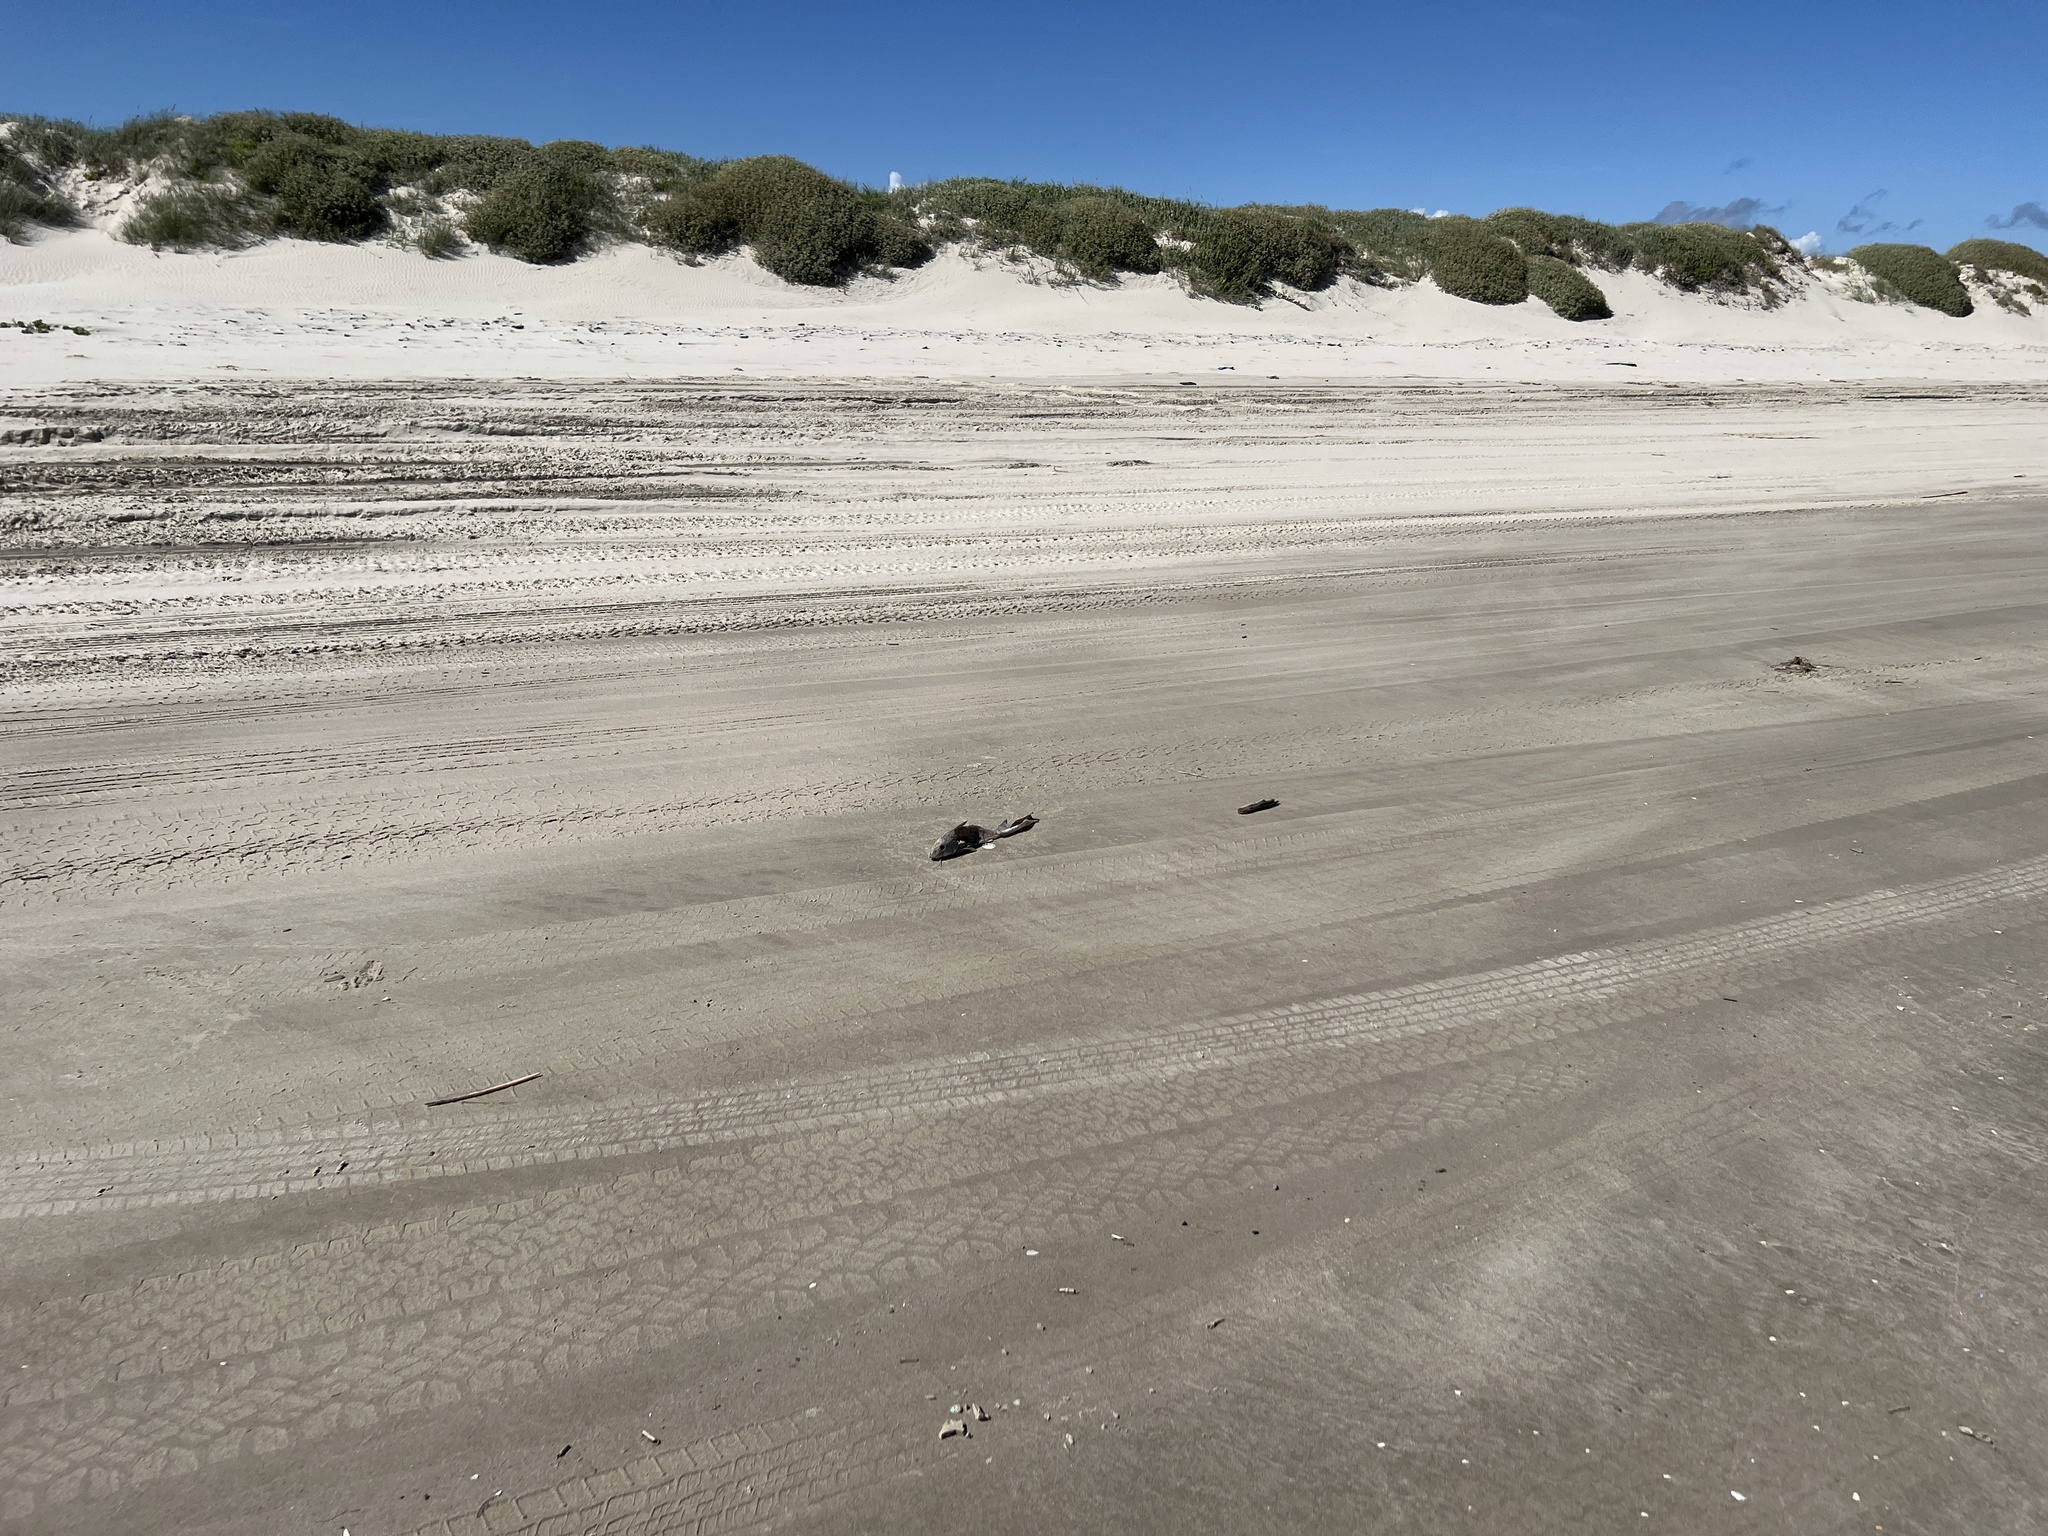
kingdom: Animalia
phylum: Chordata
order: Perciformes
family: Sciaenidae
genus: Menticirrhus
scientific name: Menticirrhus littoralis
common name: Gulf kingcroaker
